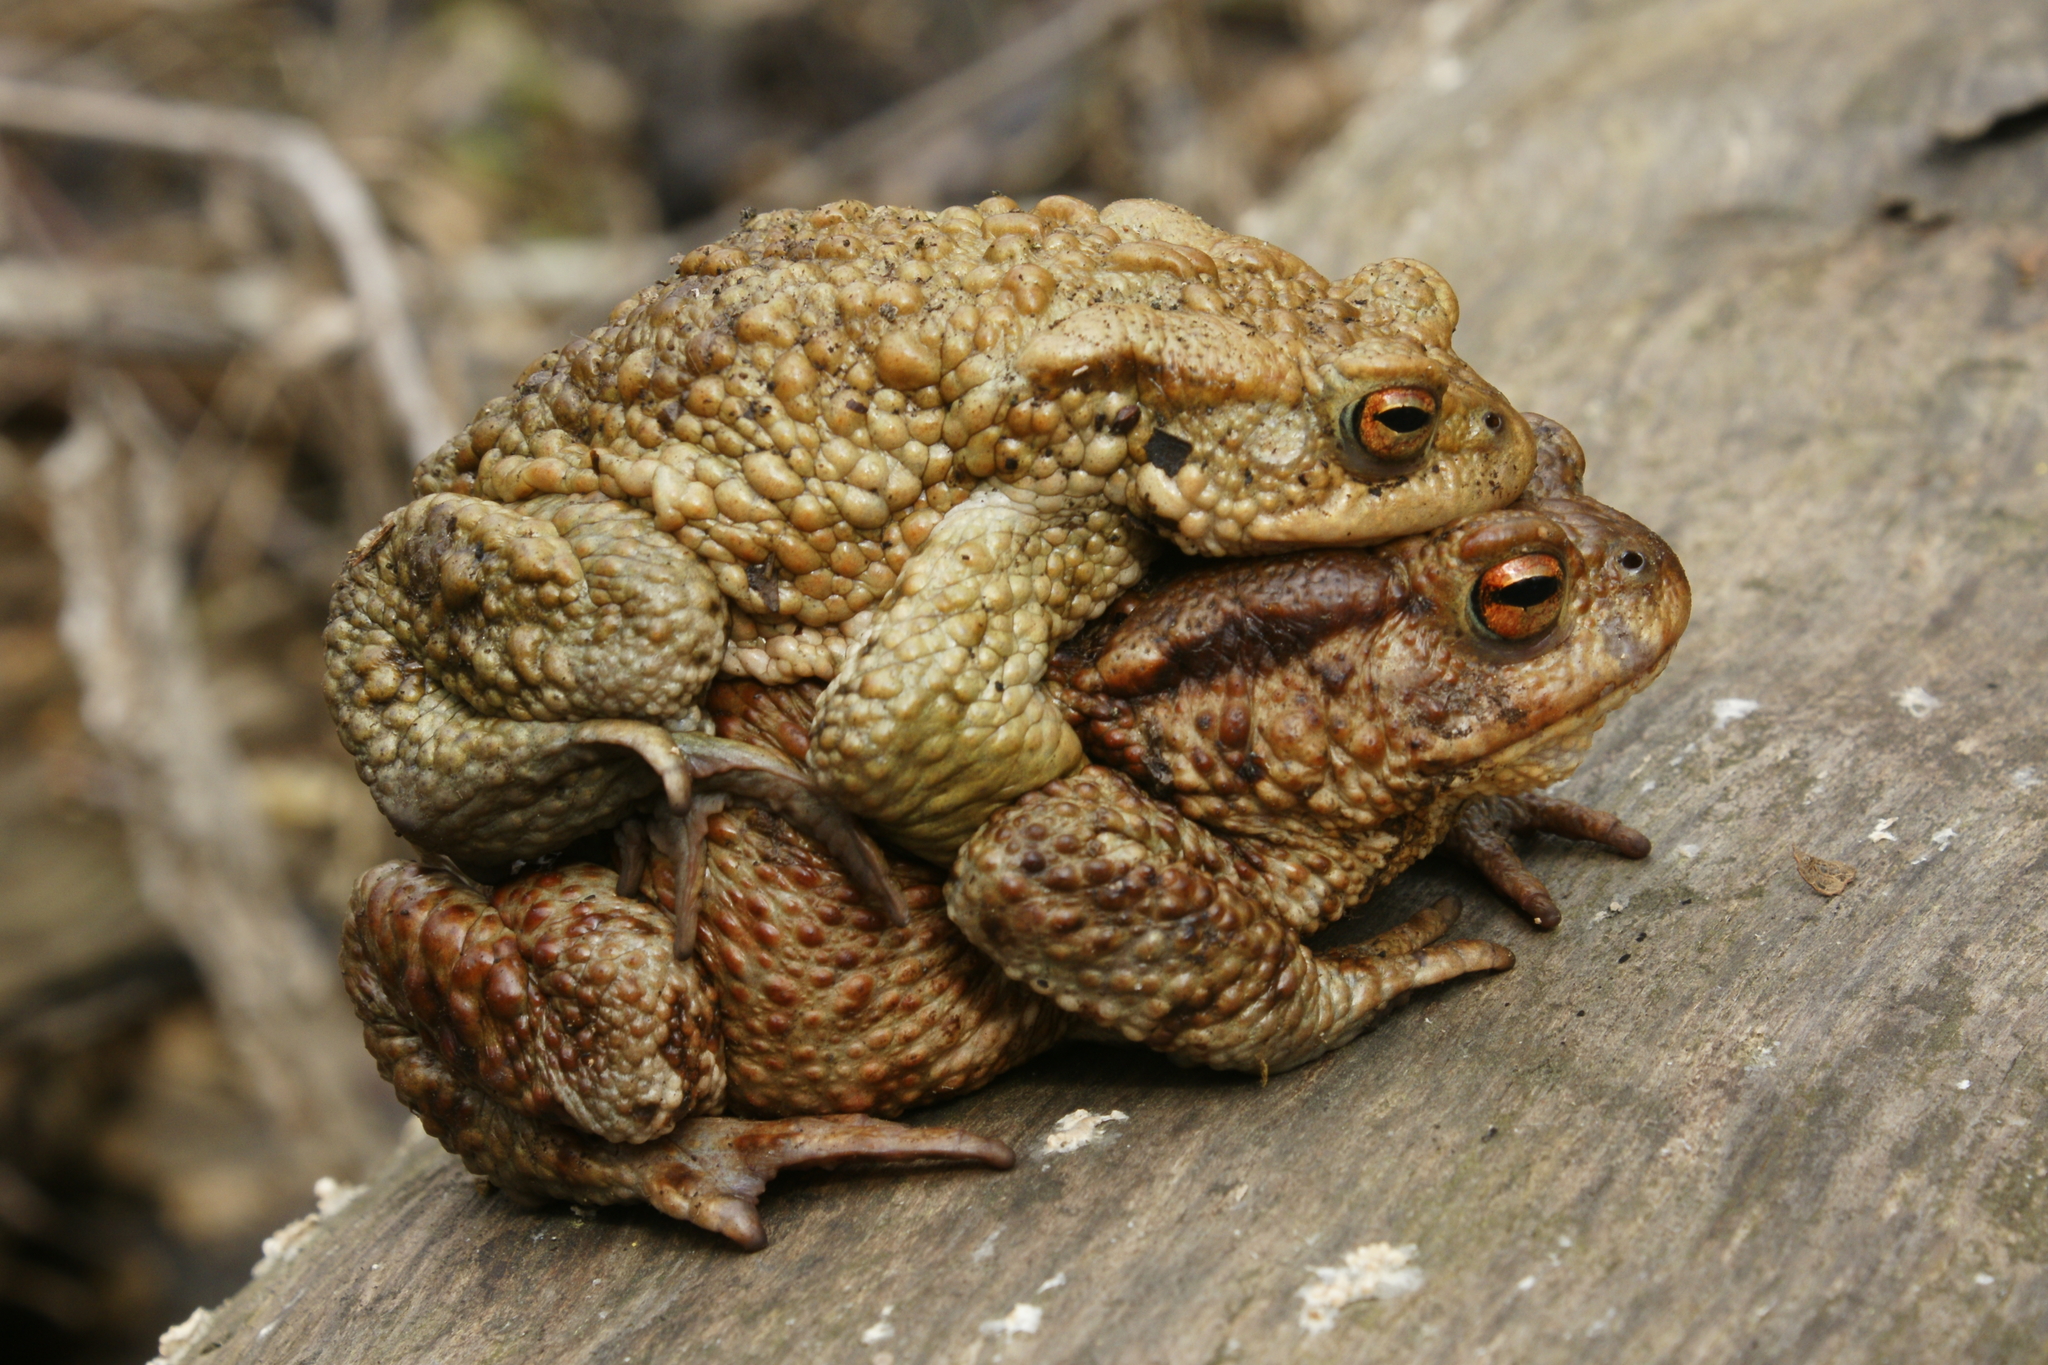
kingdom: Animalia
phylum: Chordata
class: Amphibia
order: Anura
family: Bufonidae
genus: Bufo
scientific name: Bufo bufo
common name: Common toad
